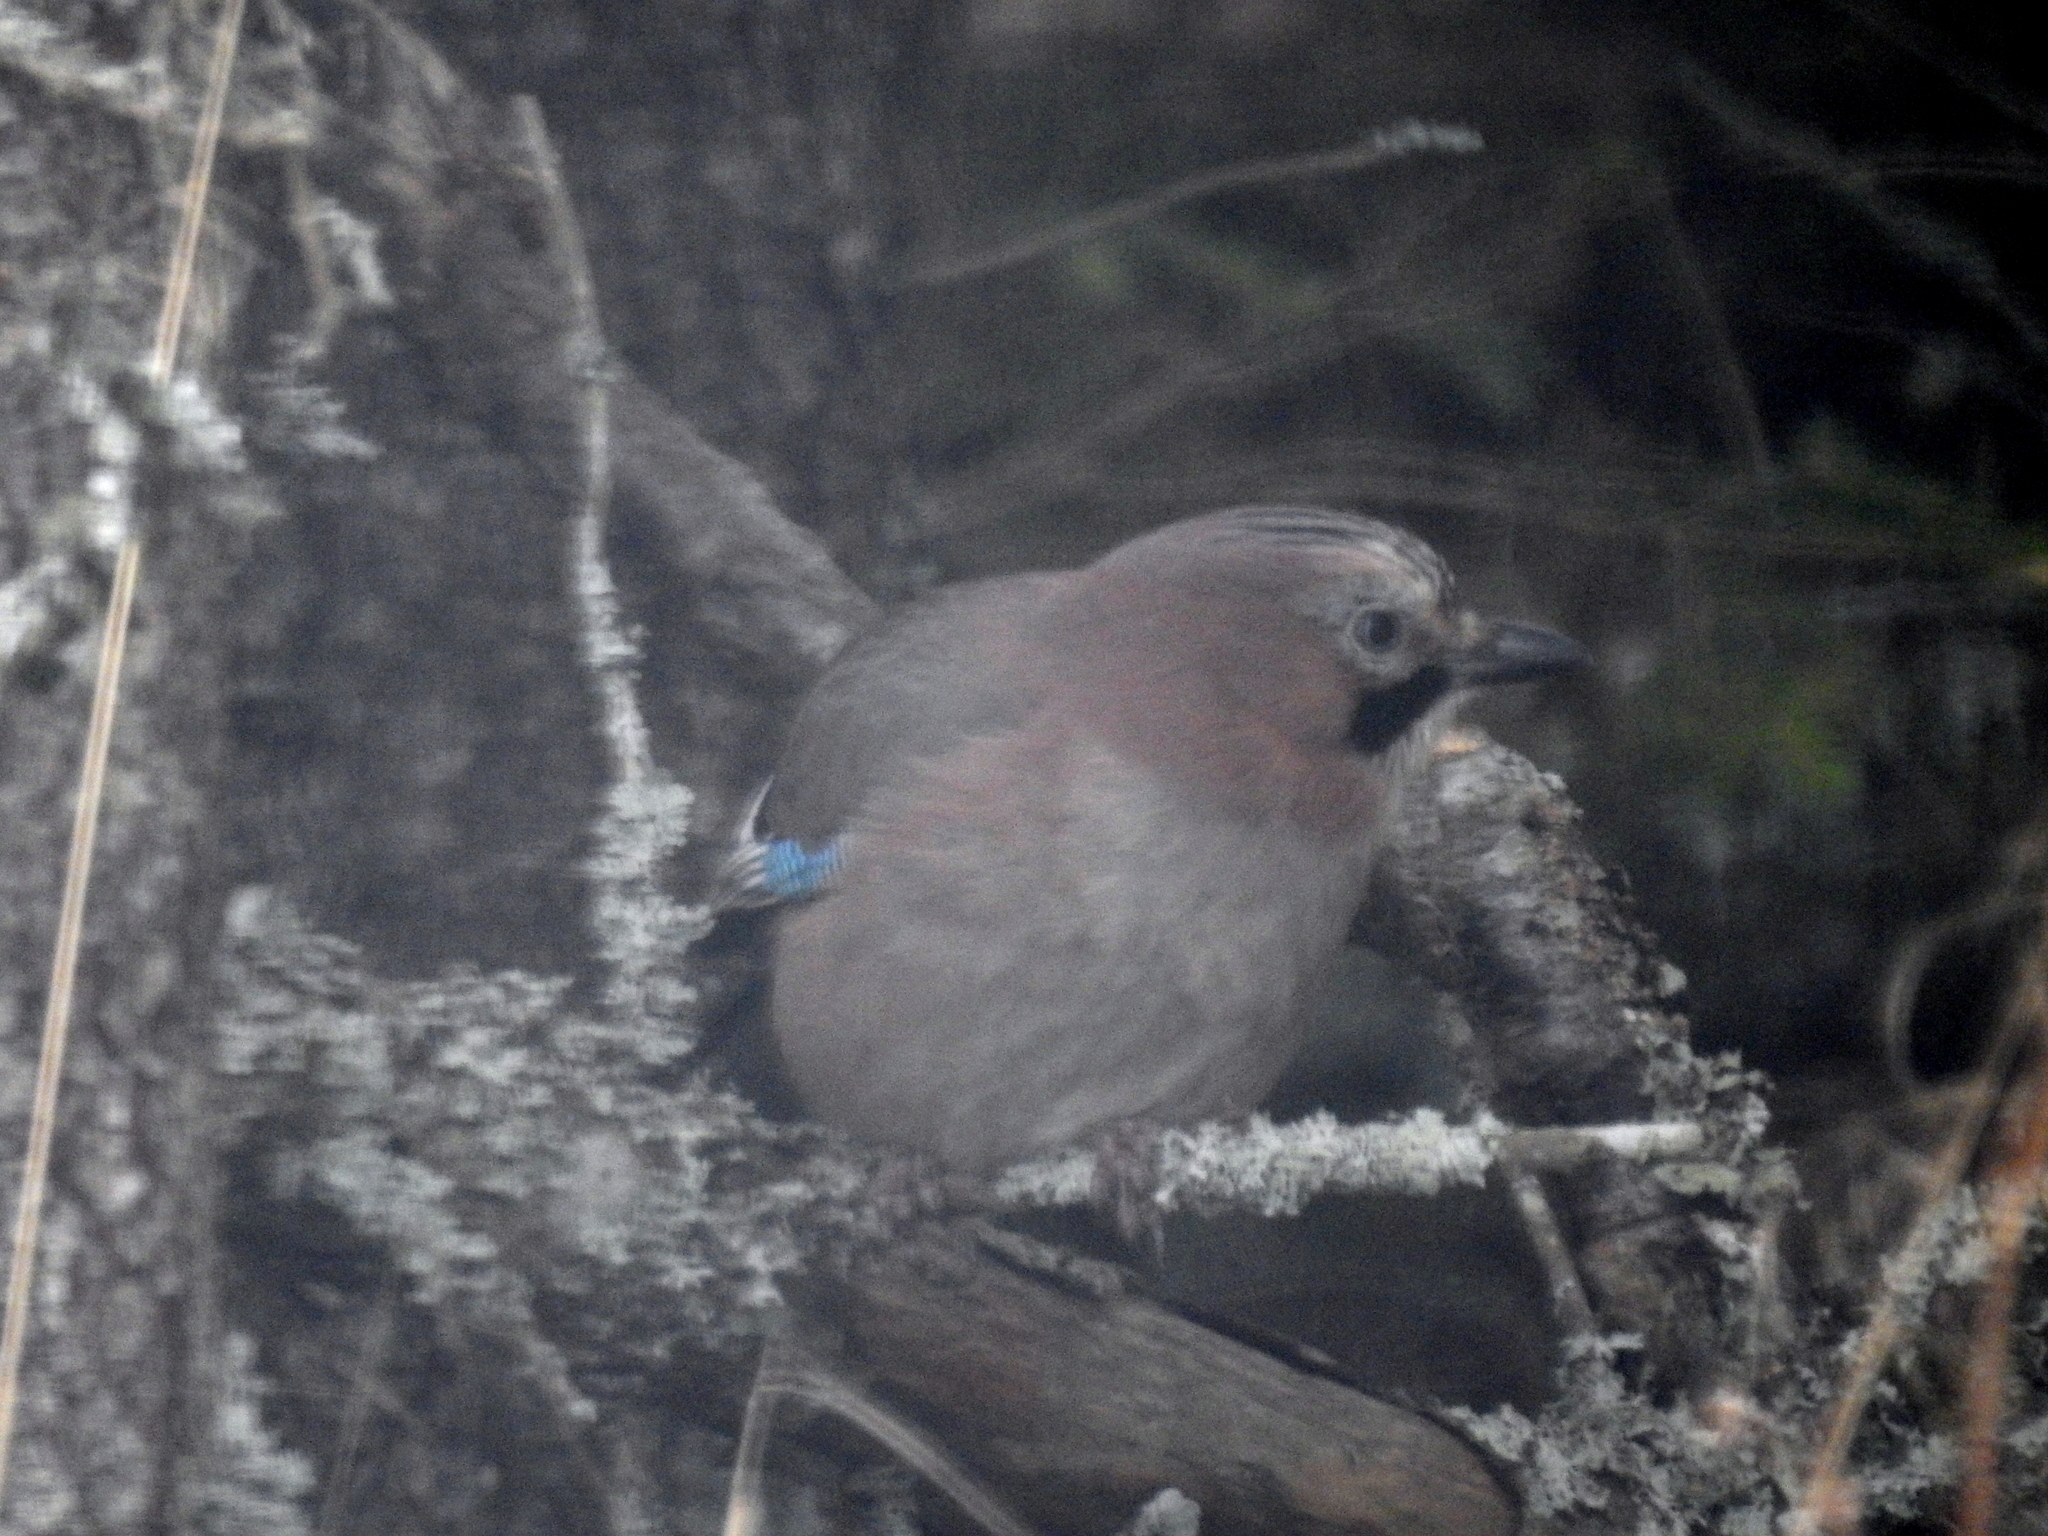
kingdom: Animalia
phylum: Chordata
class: Aves
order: Passeriformes
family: Corvidae
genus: Garrulus
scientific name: Garrulus glandarius
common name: Eurasian jay
